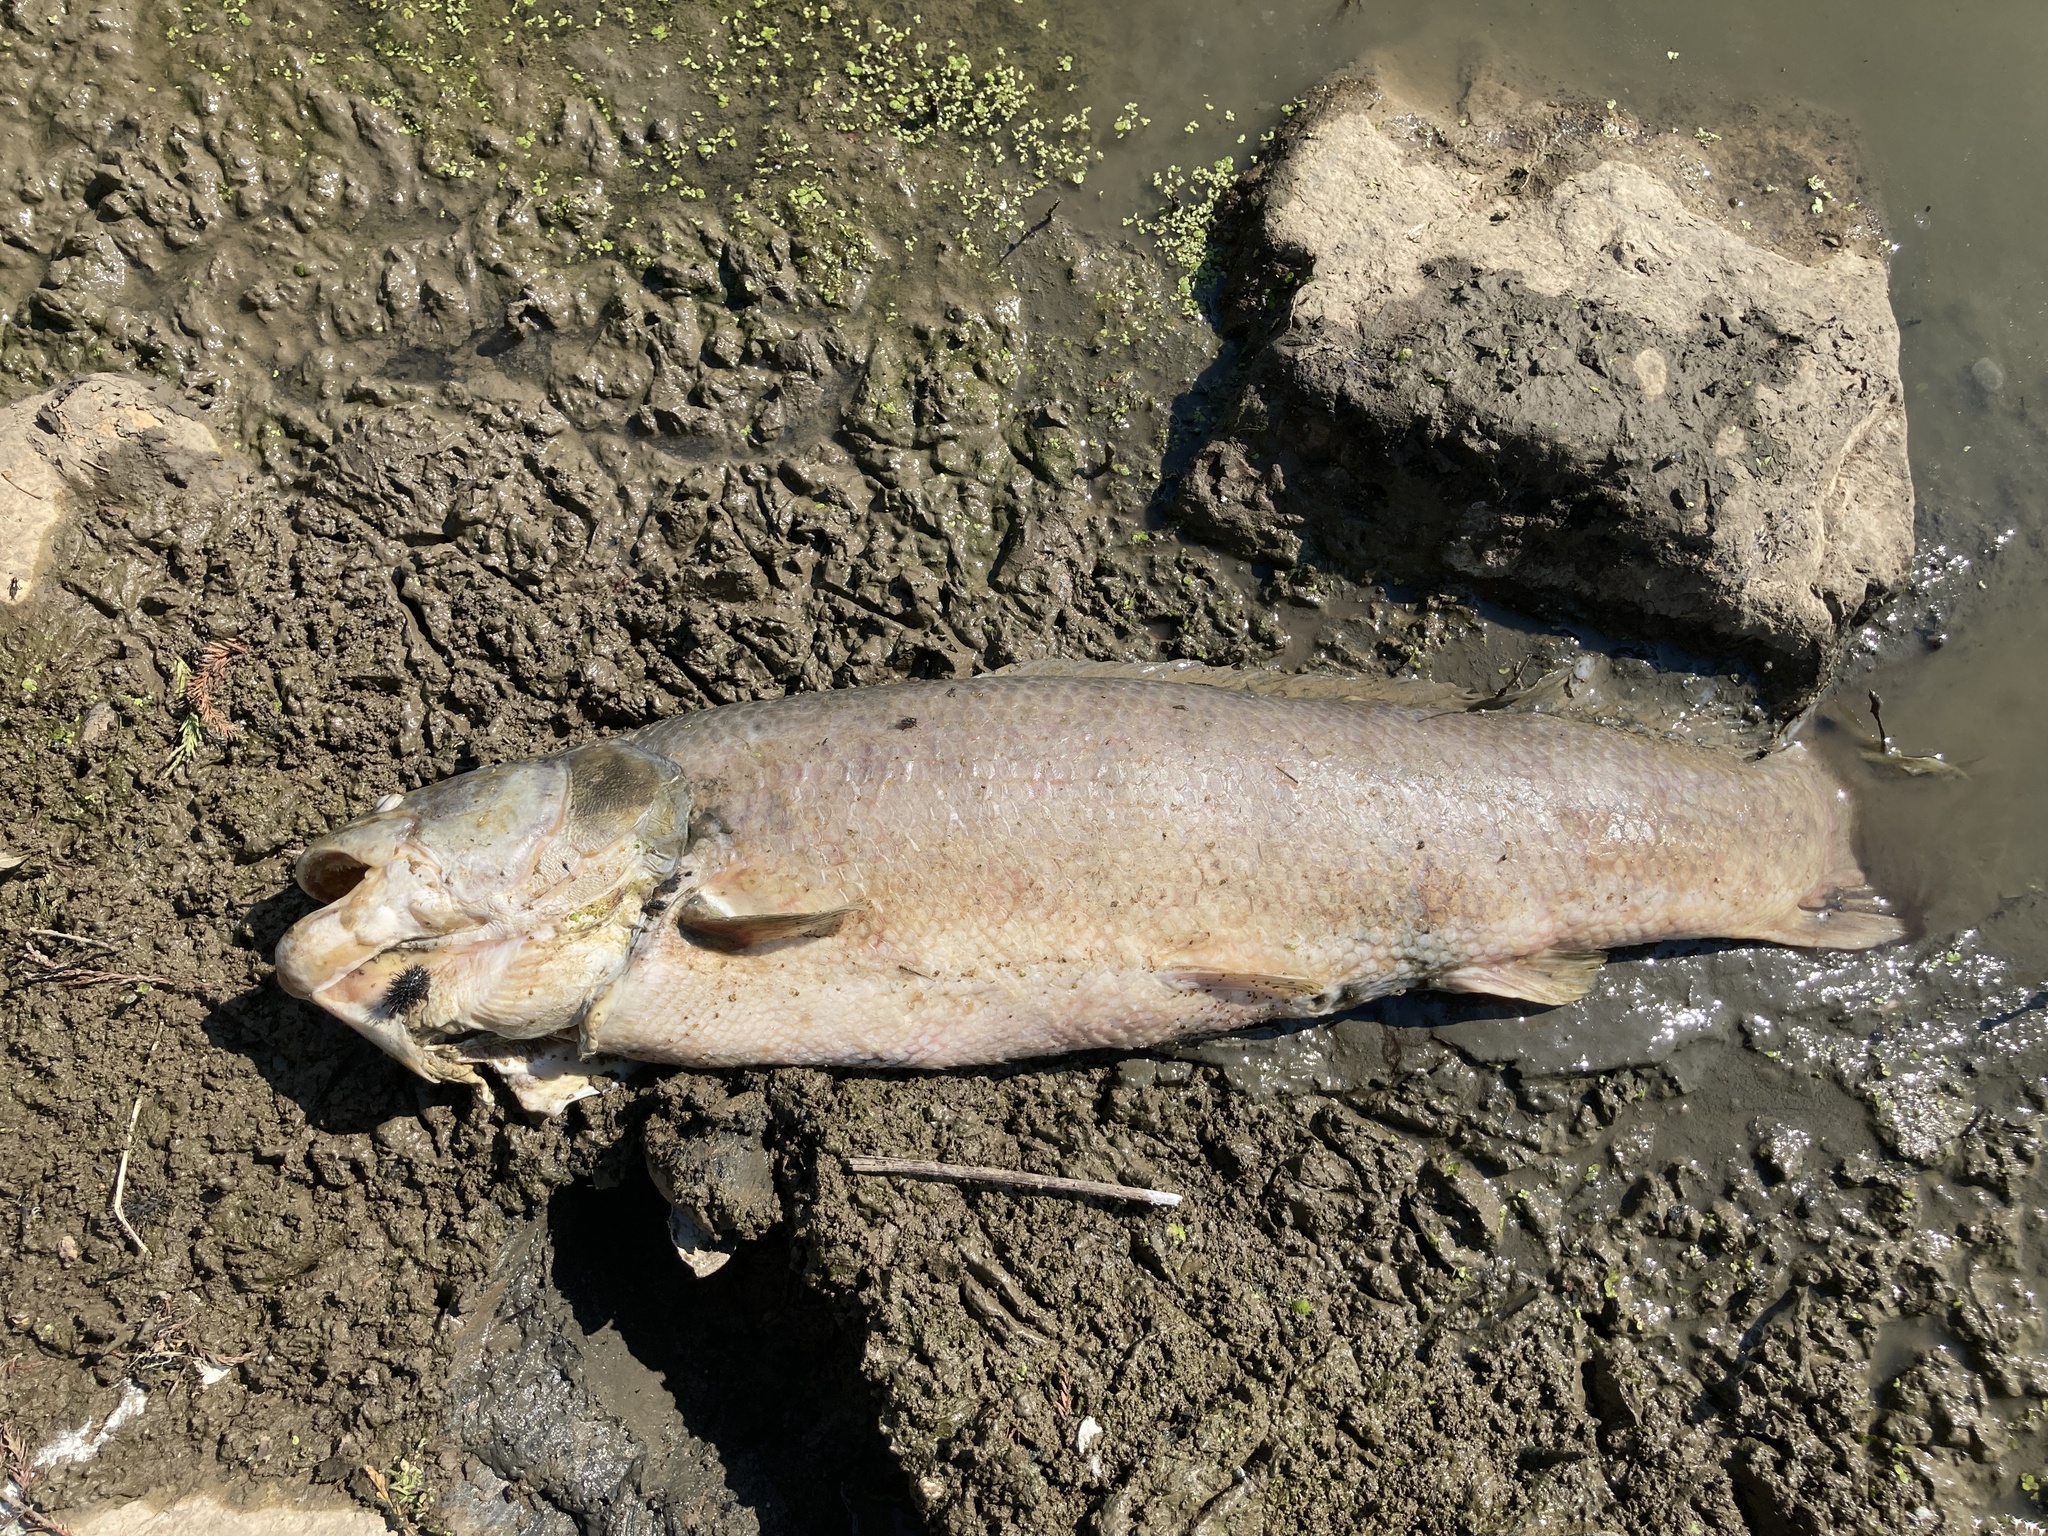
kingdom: Animalia
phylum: Chordata
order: Amiiformes
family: Amiidae
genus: Amia
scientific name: Amia calva
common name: Bowfin
